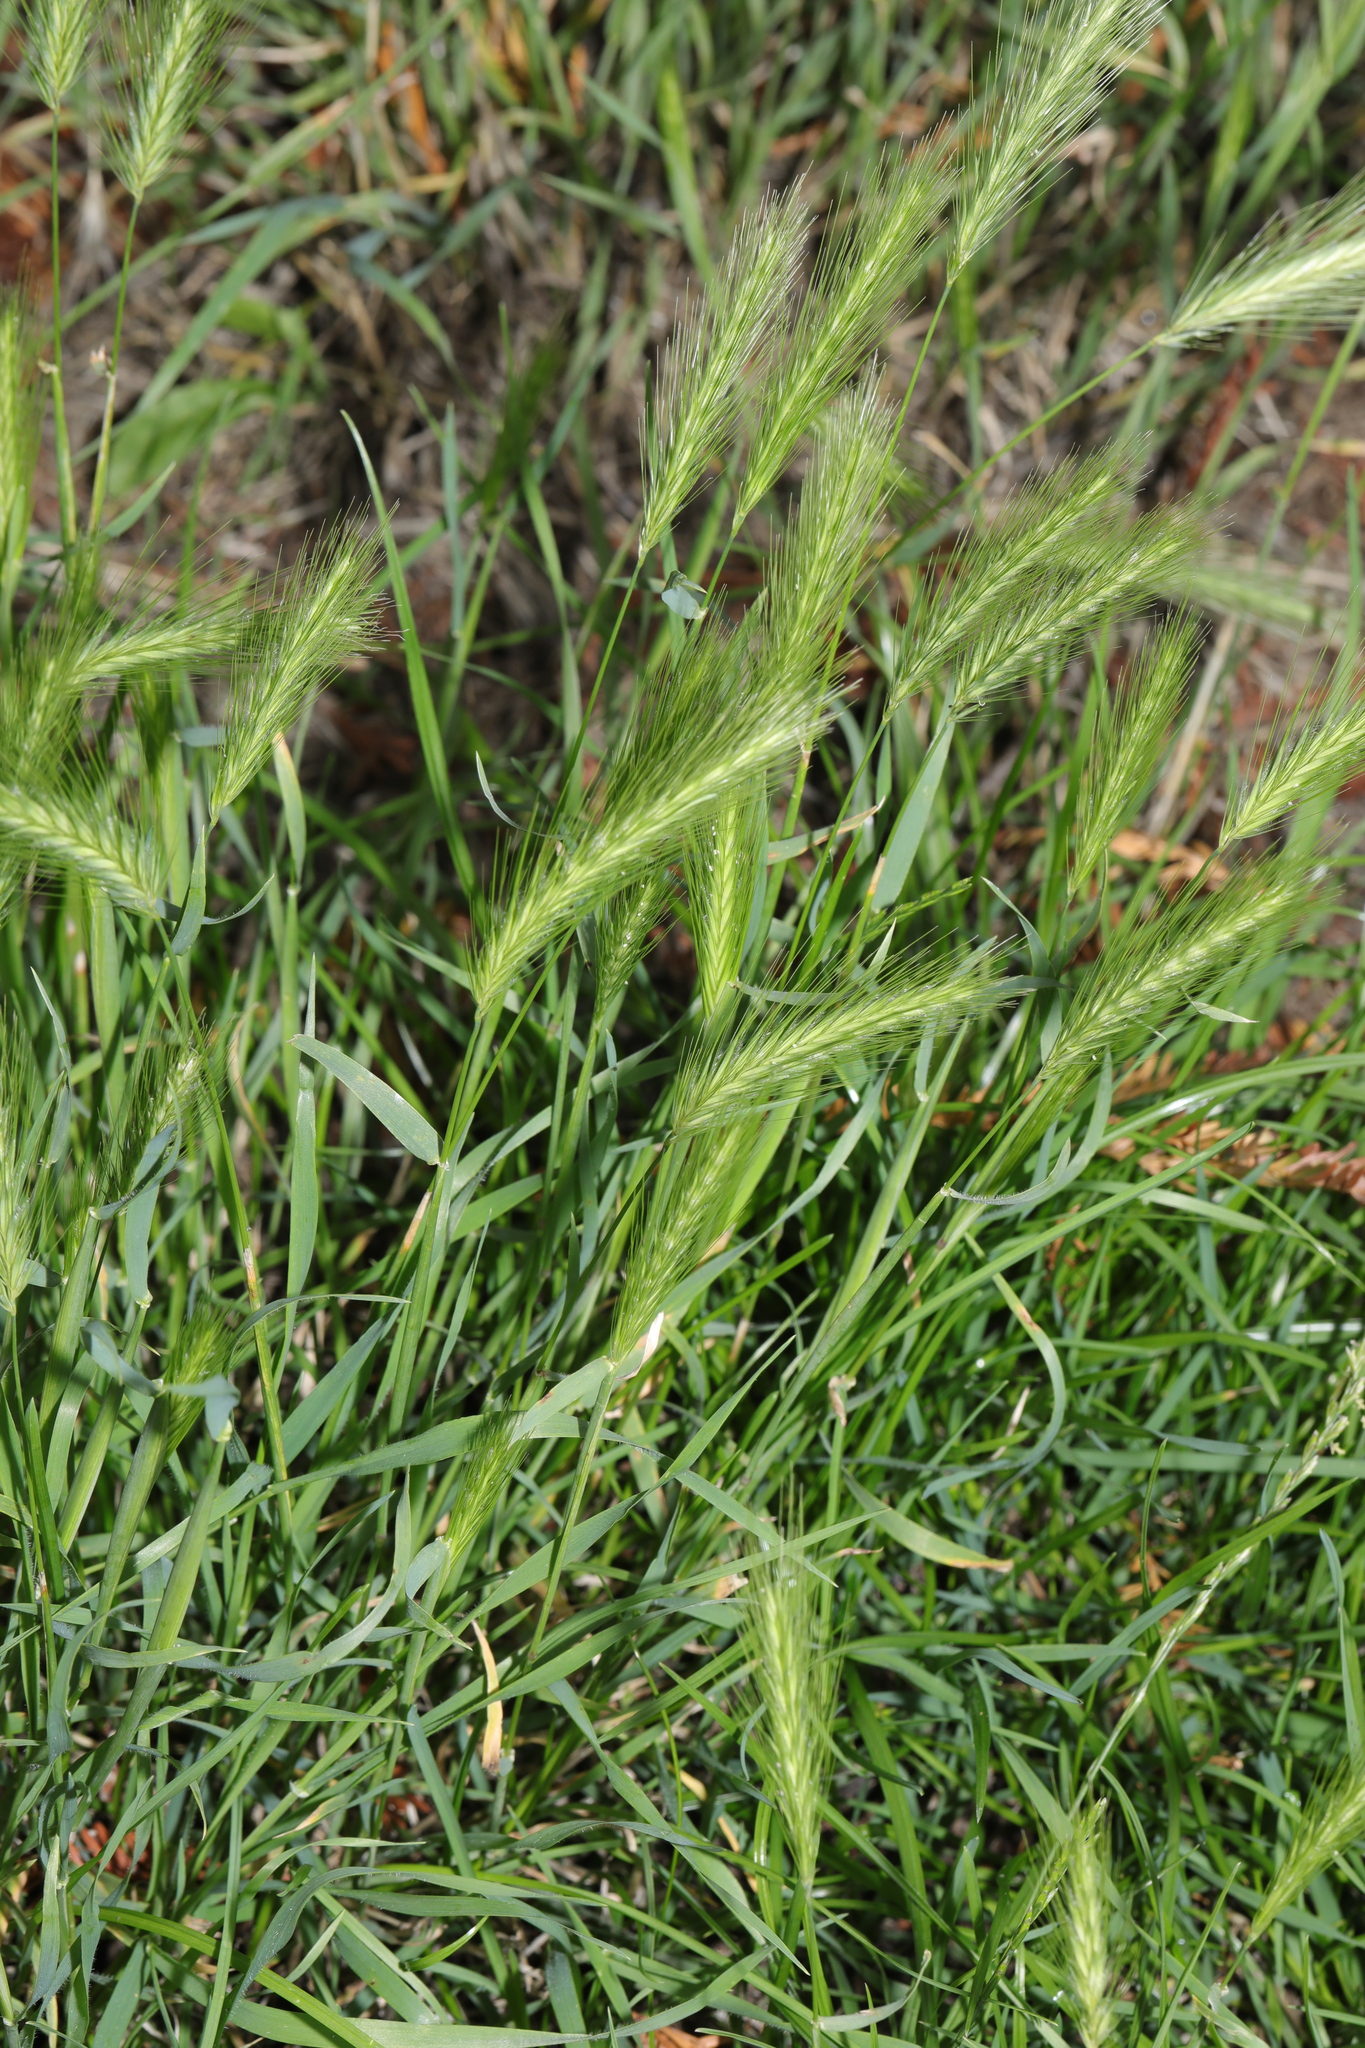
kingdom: Plantae
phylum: Tracheophyta
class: Liliopsida
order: Poales
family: Poaceae
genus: Hordeum
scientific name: Hordeum murinum
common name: Wall barley
